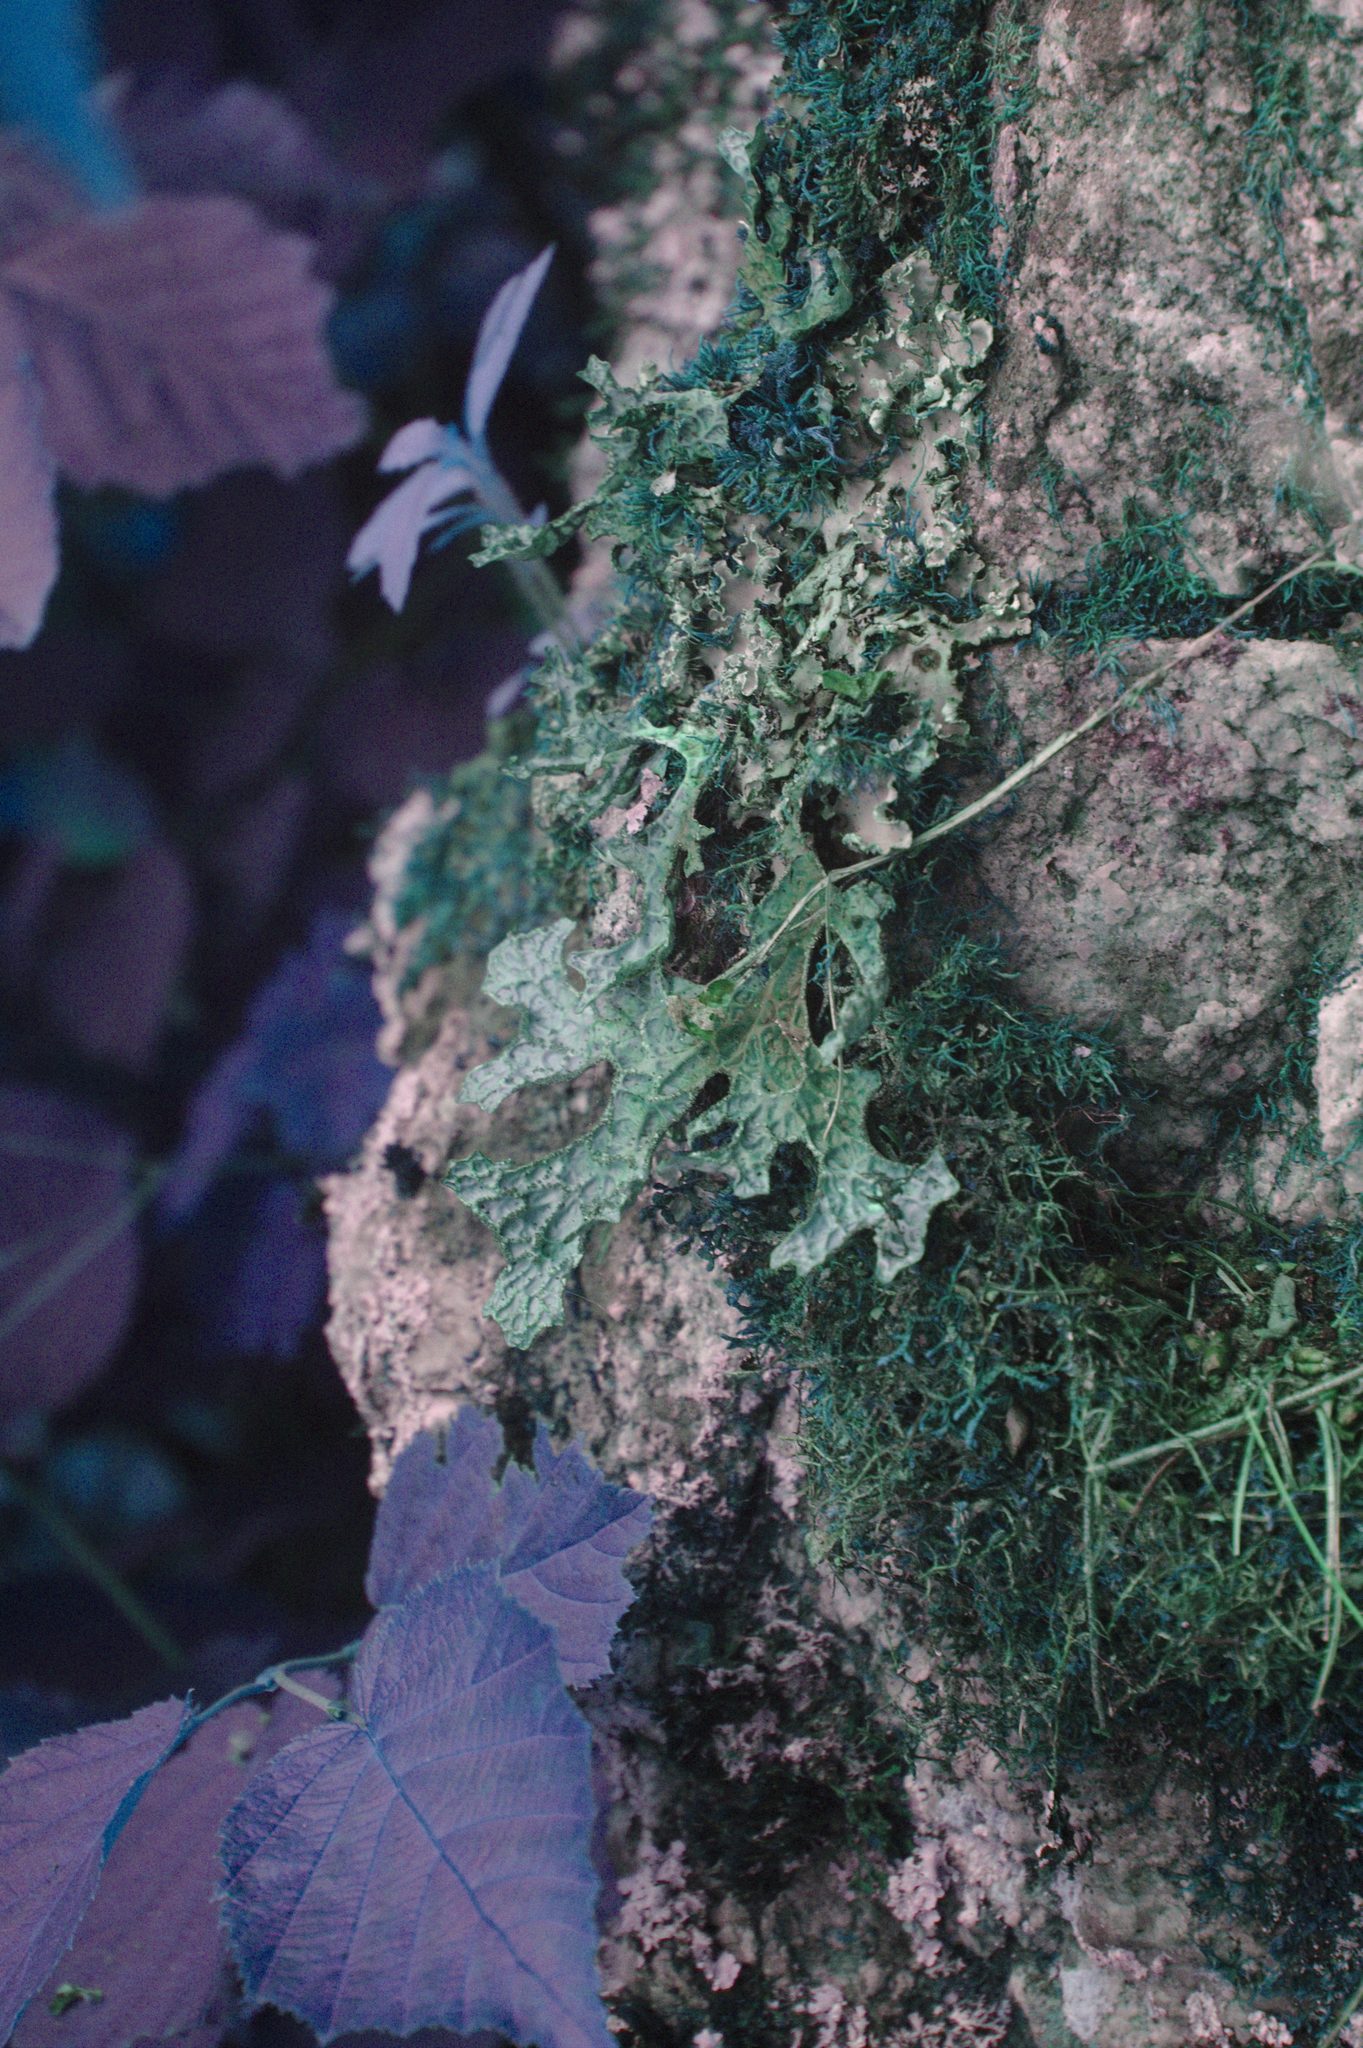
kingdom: Fungi
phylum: Ascomycota
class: Lecanoromycetes
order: Peltigerales
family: Lobariaceae
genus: Lobaria
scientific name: Lobaria pulmonaria
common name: Lungwort
